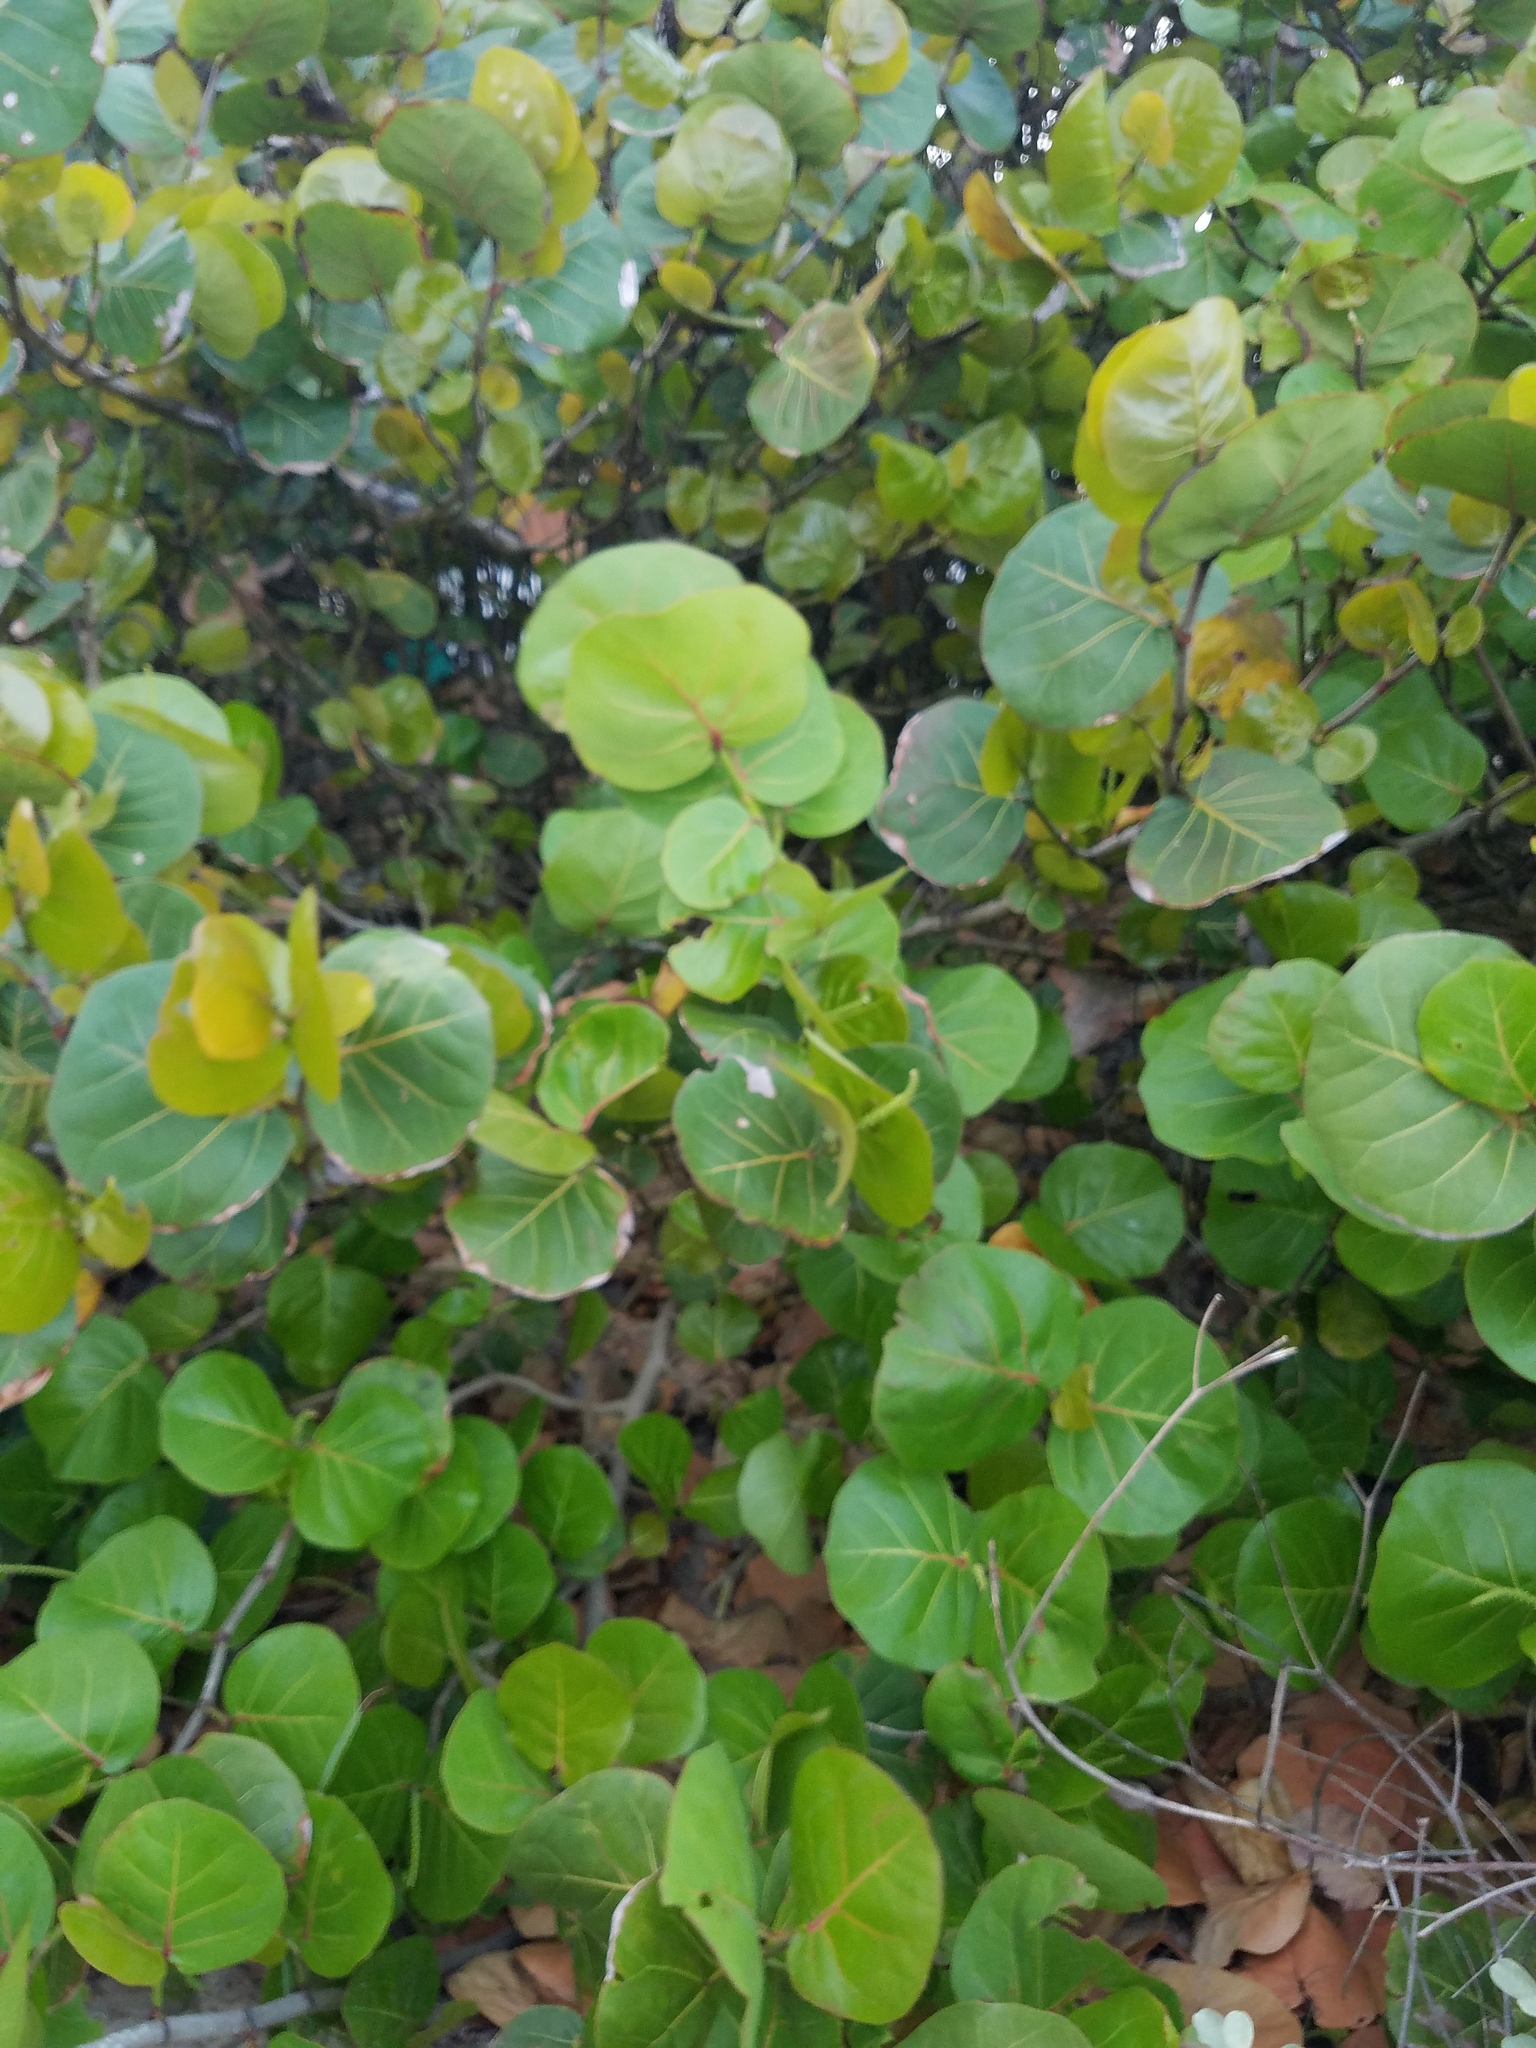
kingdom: Plantae
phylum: Tracheophyta
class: Magnoliopsida
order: Caryophyllales
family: Polygonaceae
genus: Coccoloba
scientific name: Coccoloba uvifera
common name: Seagrape
